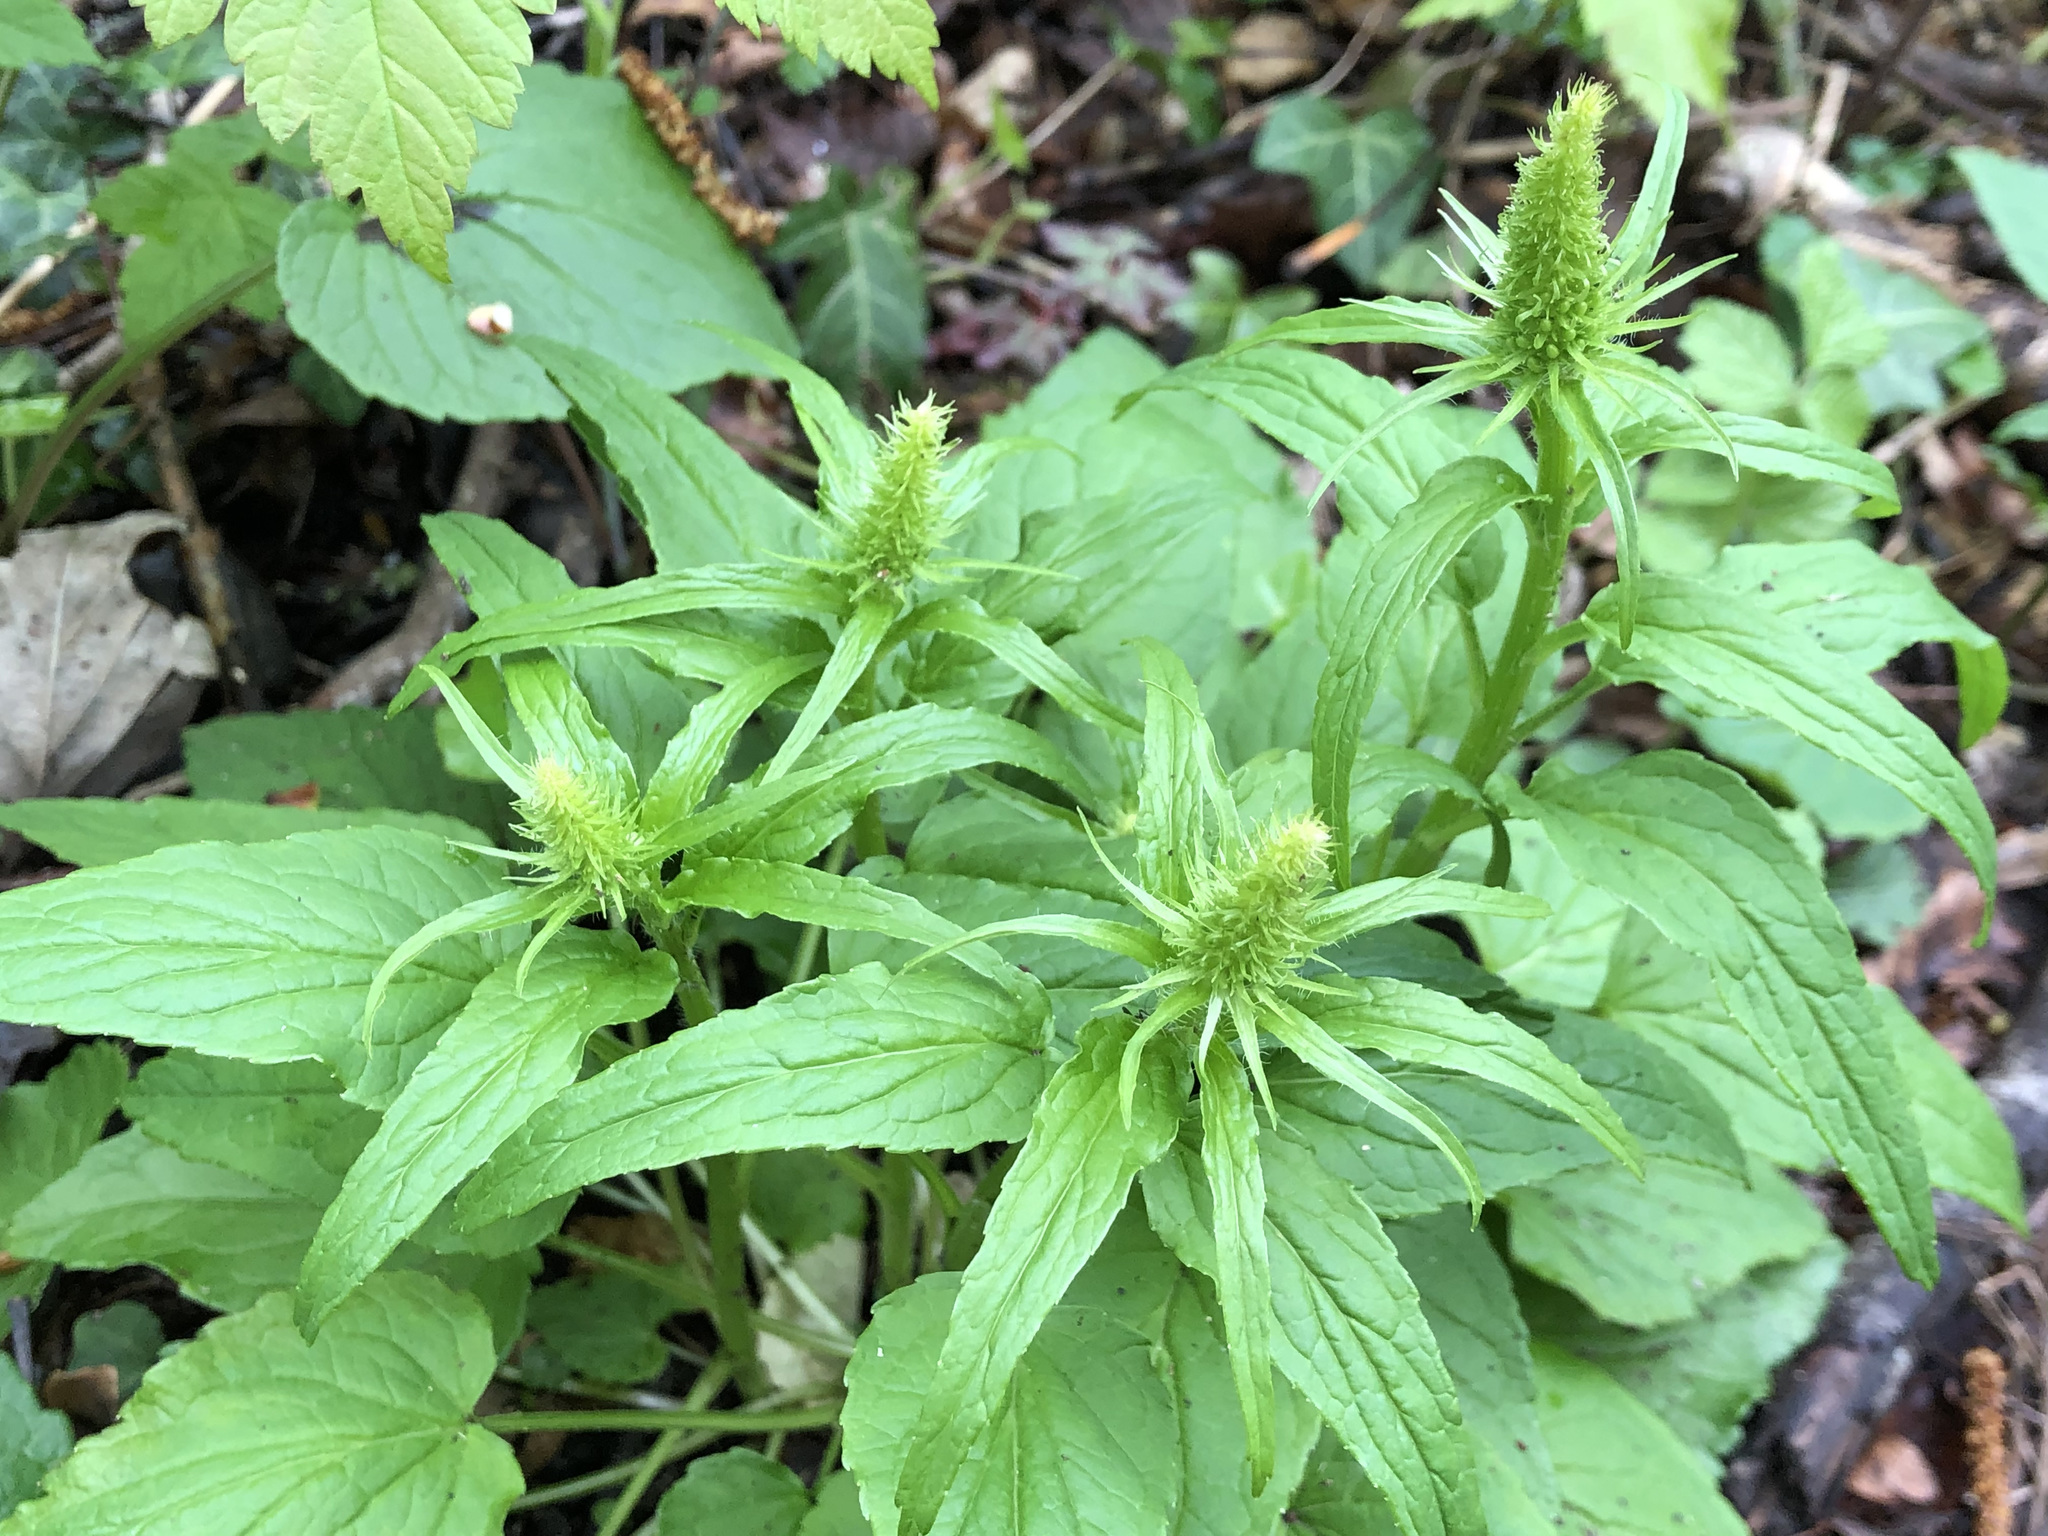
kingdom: Plantae
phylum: Tracheophyta
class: Magnoliopsida
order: Asterales
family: Campanulaceae
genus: Phyteuma
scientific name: Phyteuma spicatum
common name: Spiked rampion
